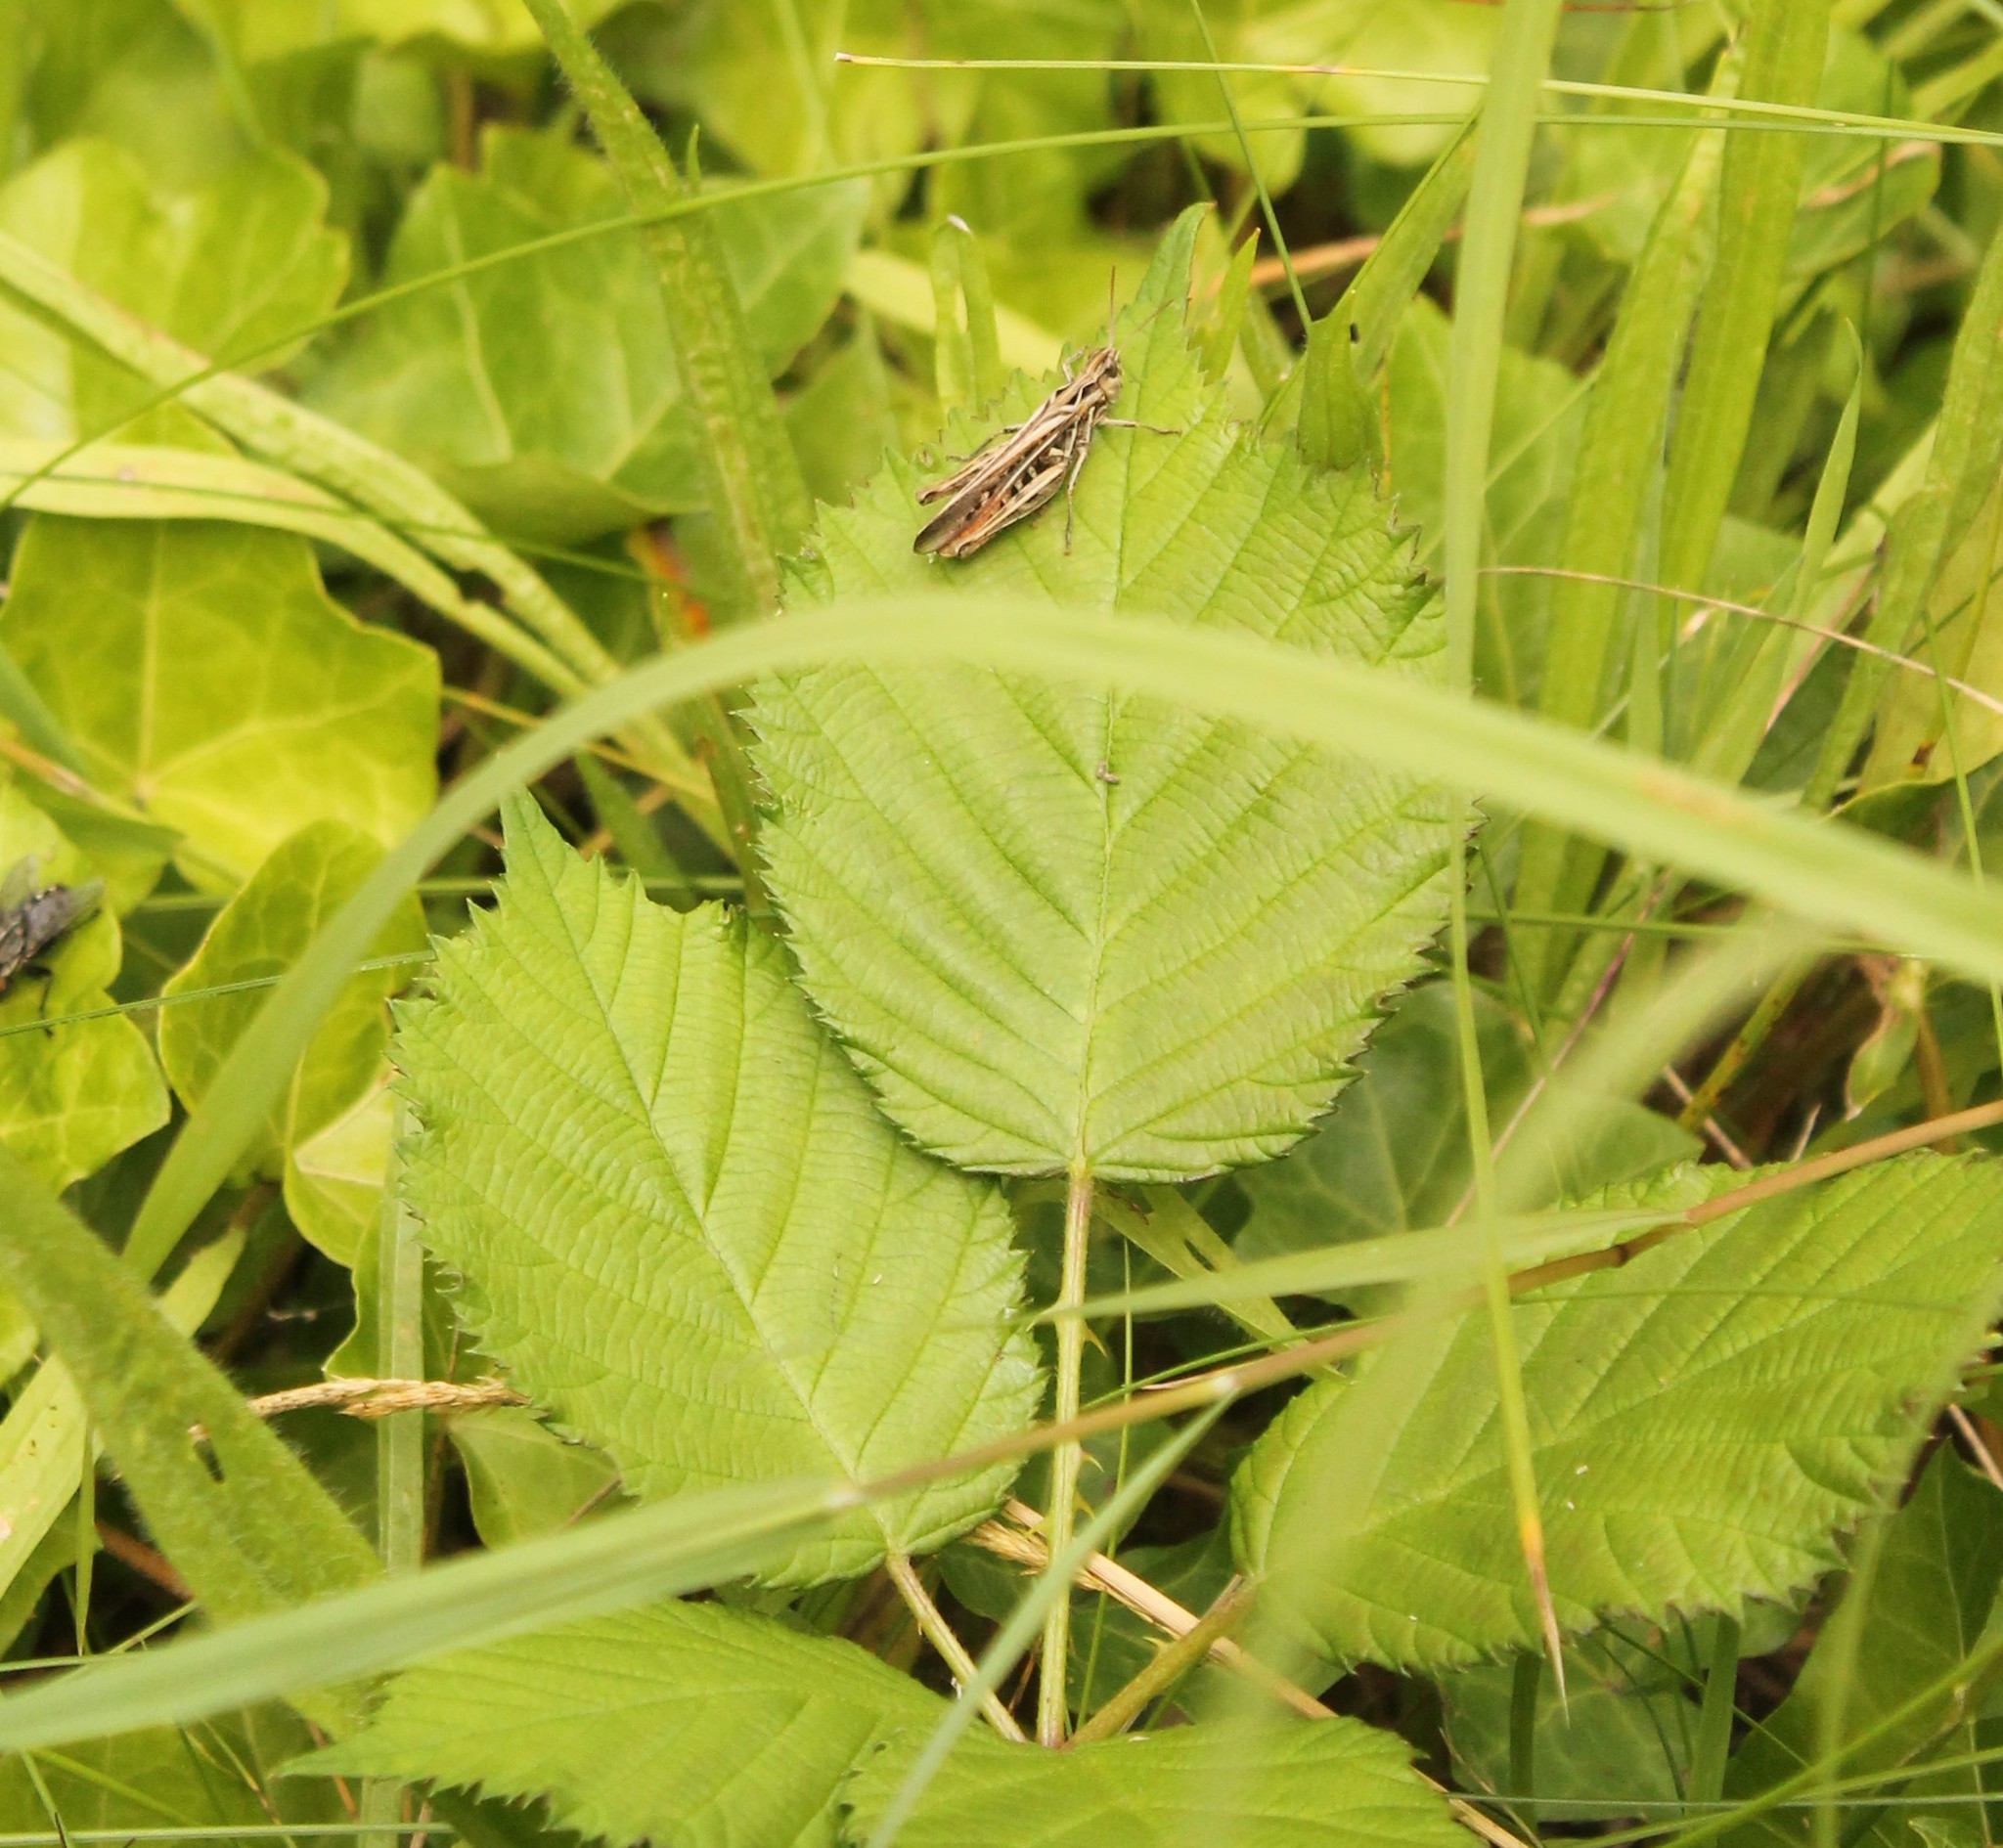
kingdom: Animalia
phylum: Arthropoda
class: Insecta
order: Orthoptera
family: Acrididae
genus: Chorthippus
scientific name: Chorthippus brunneus
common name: Field grasshopper
